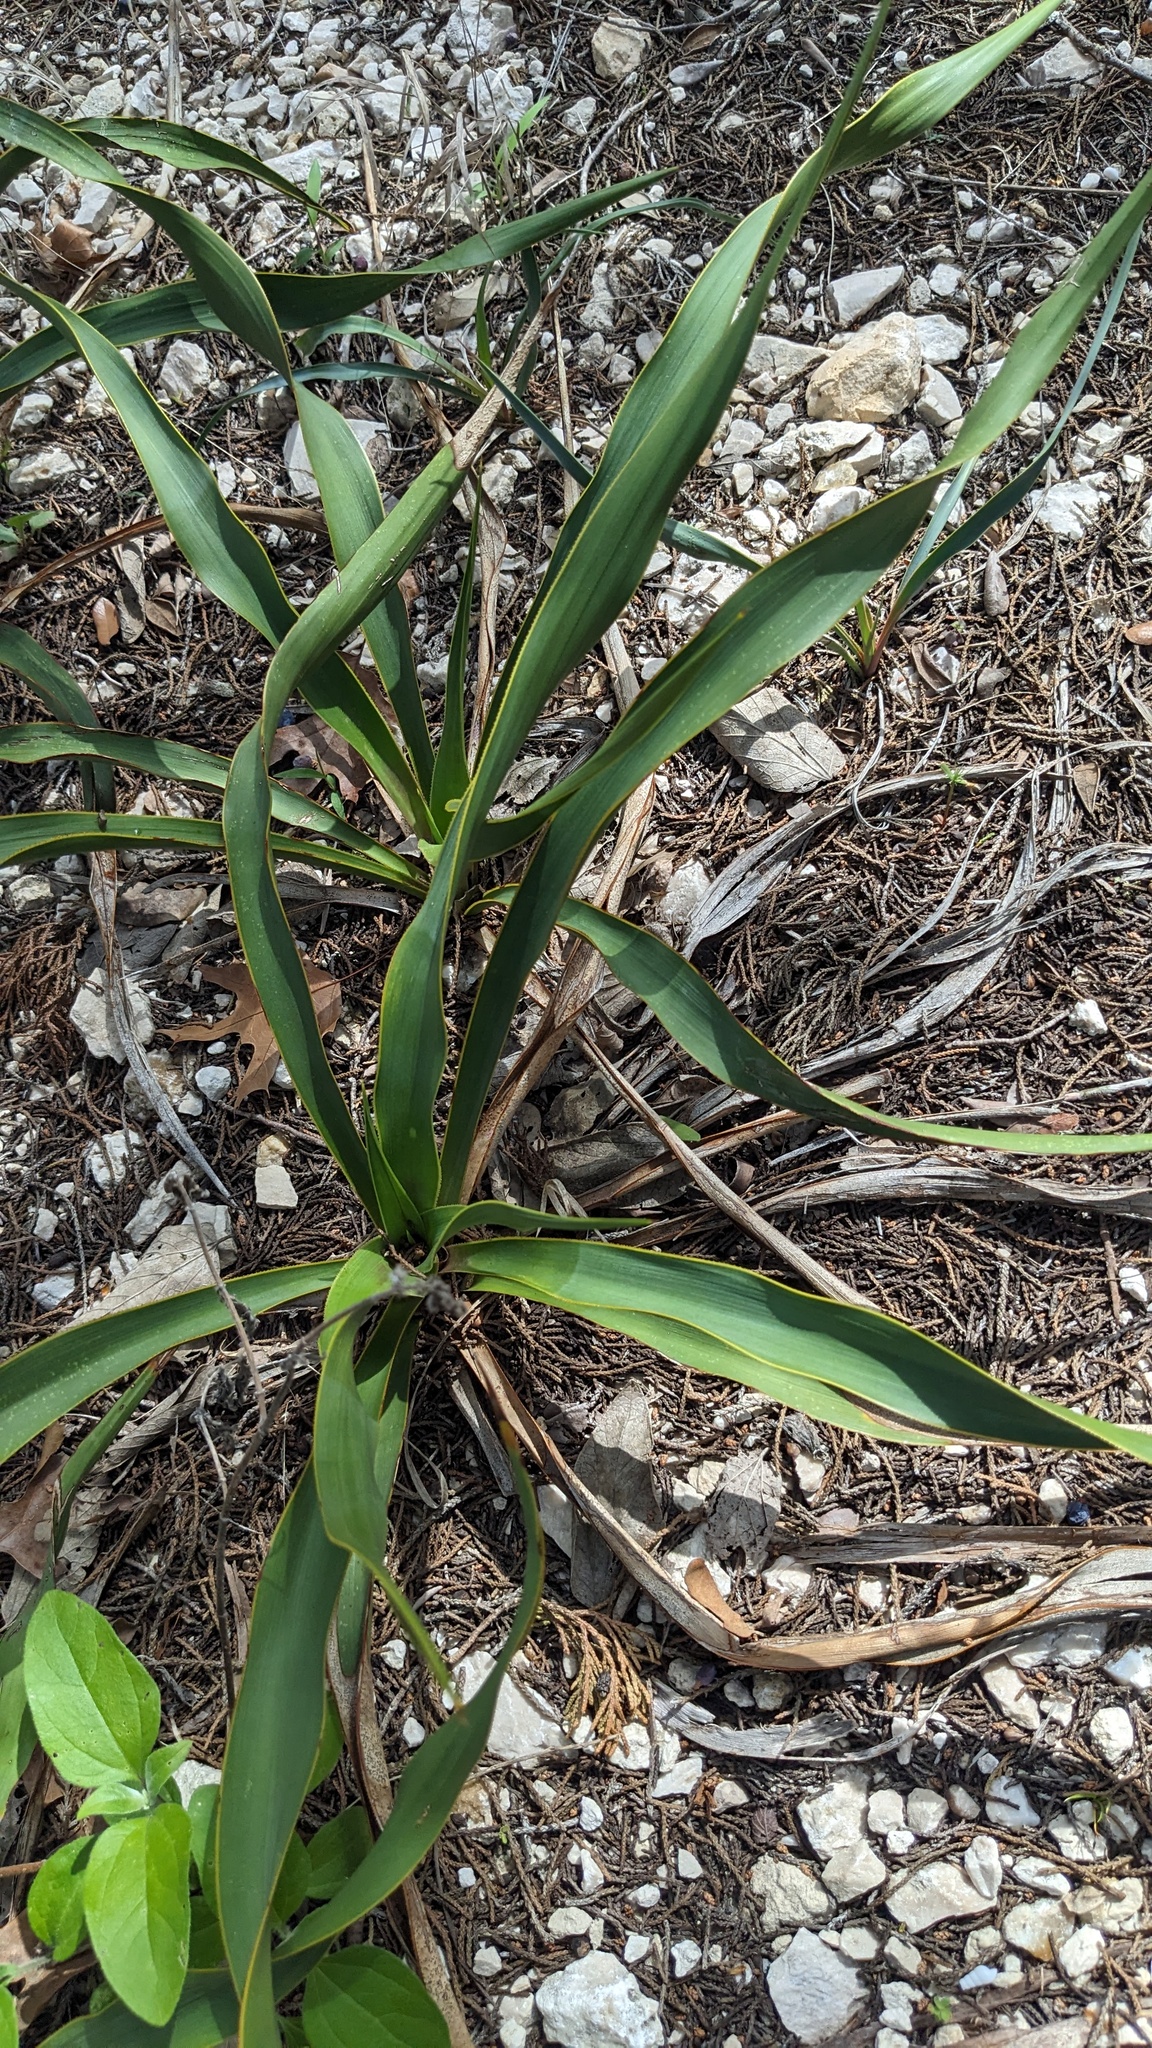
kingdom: Plantae
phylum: Tracheophyta
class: Liliopsida
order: Asparagales
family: Asparagaceae
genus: Yucca
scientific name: Yucca rupicola
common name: Twisted-leaf spanish-dagger
